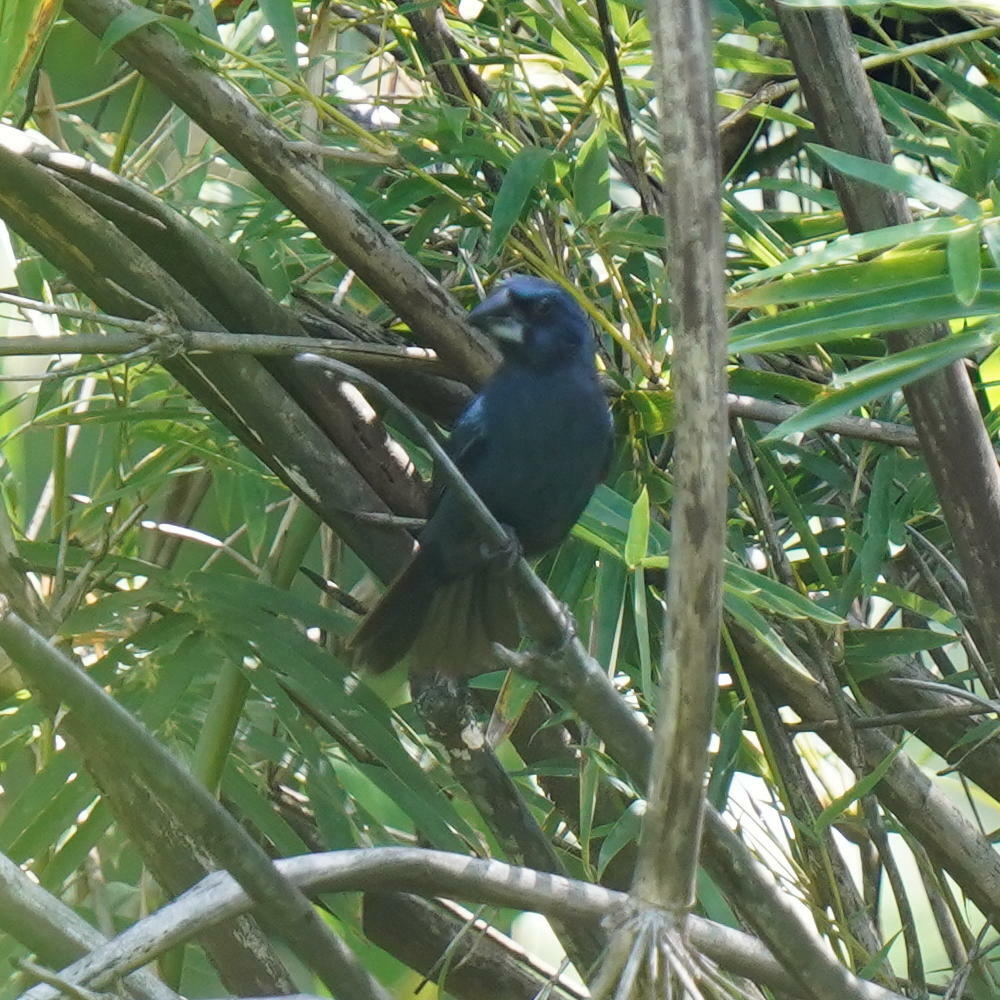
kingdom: Animalia
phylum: Chordata
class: Aves
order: Passeriformes
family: Cardinalidae
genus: Cyanocompsa
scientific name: Cyanocompsa cyanoides
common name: Blue-black grosbeak
